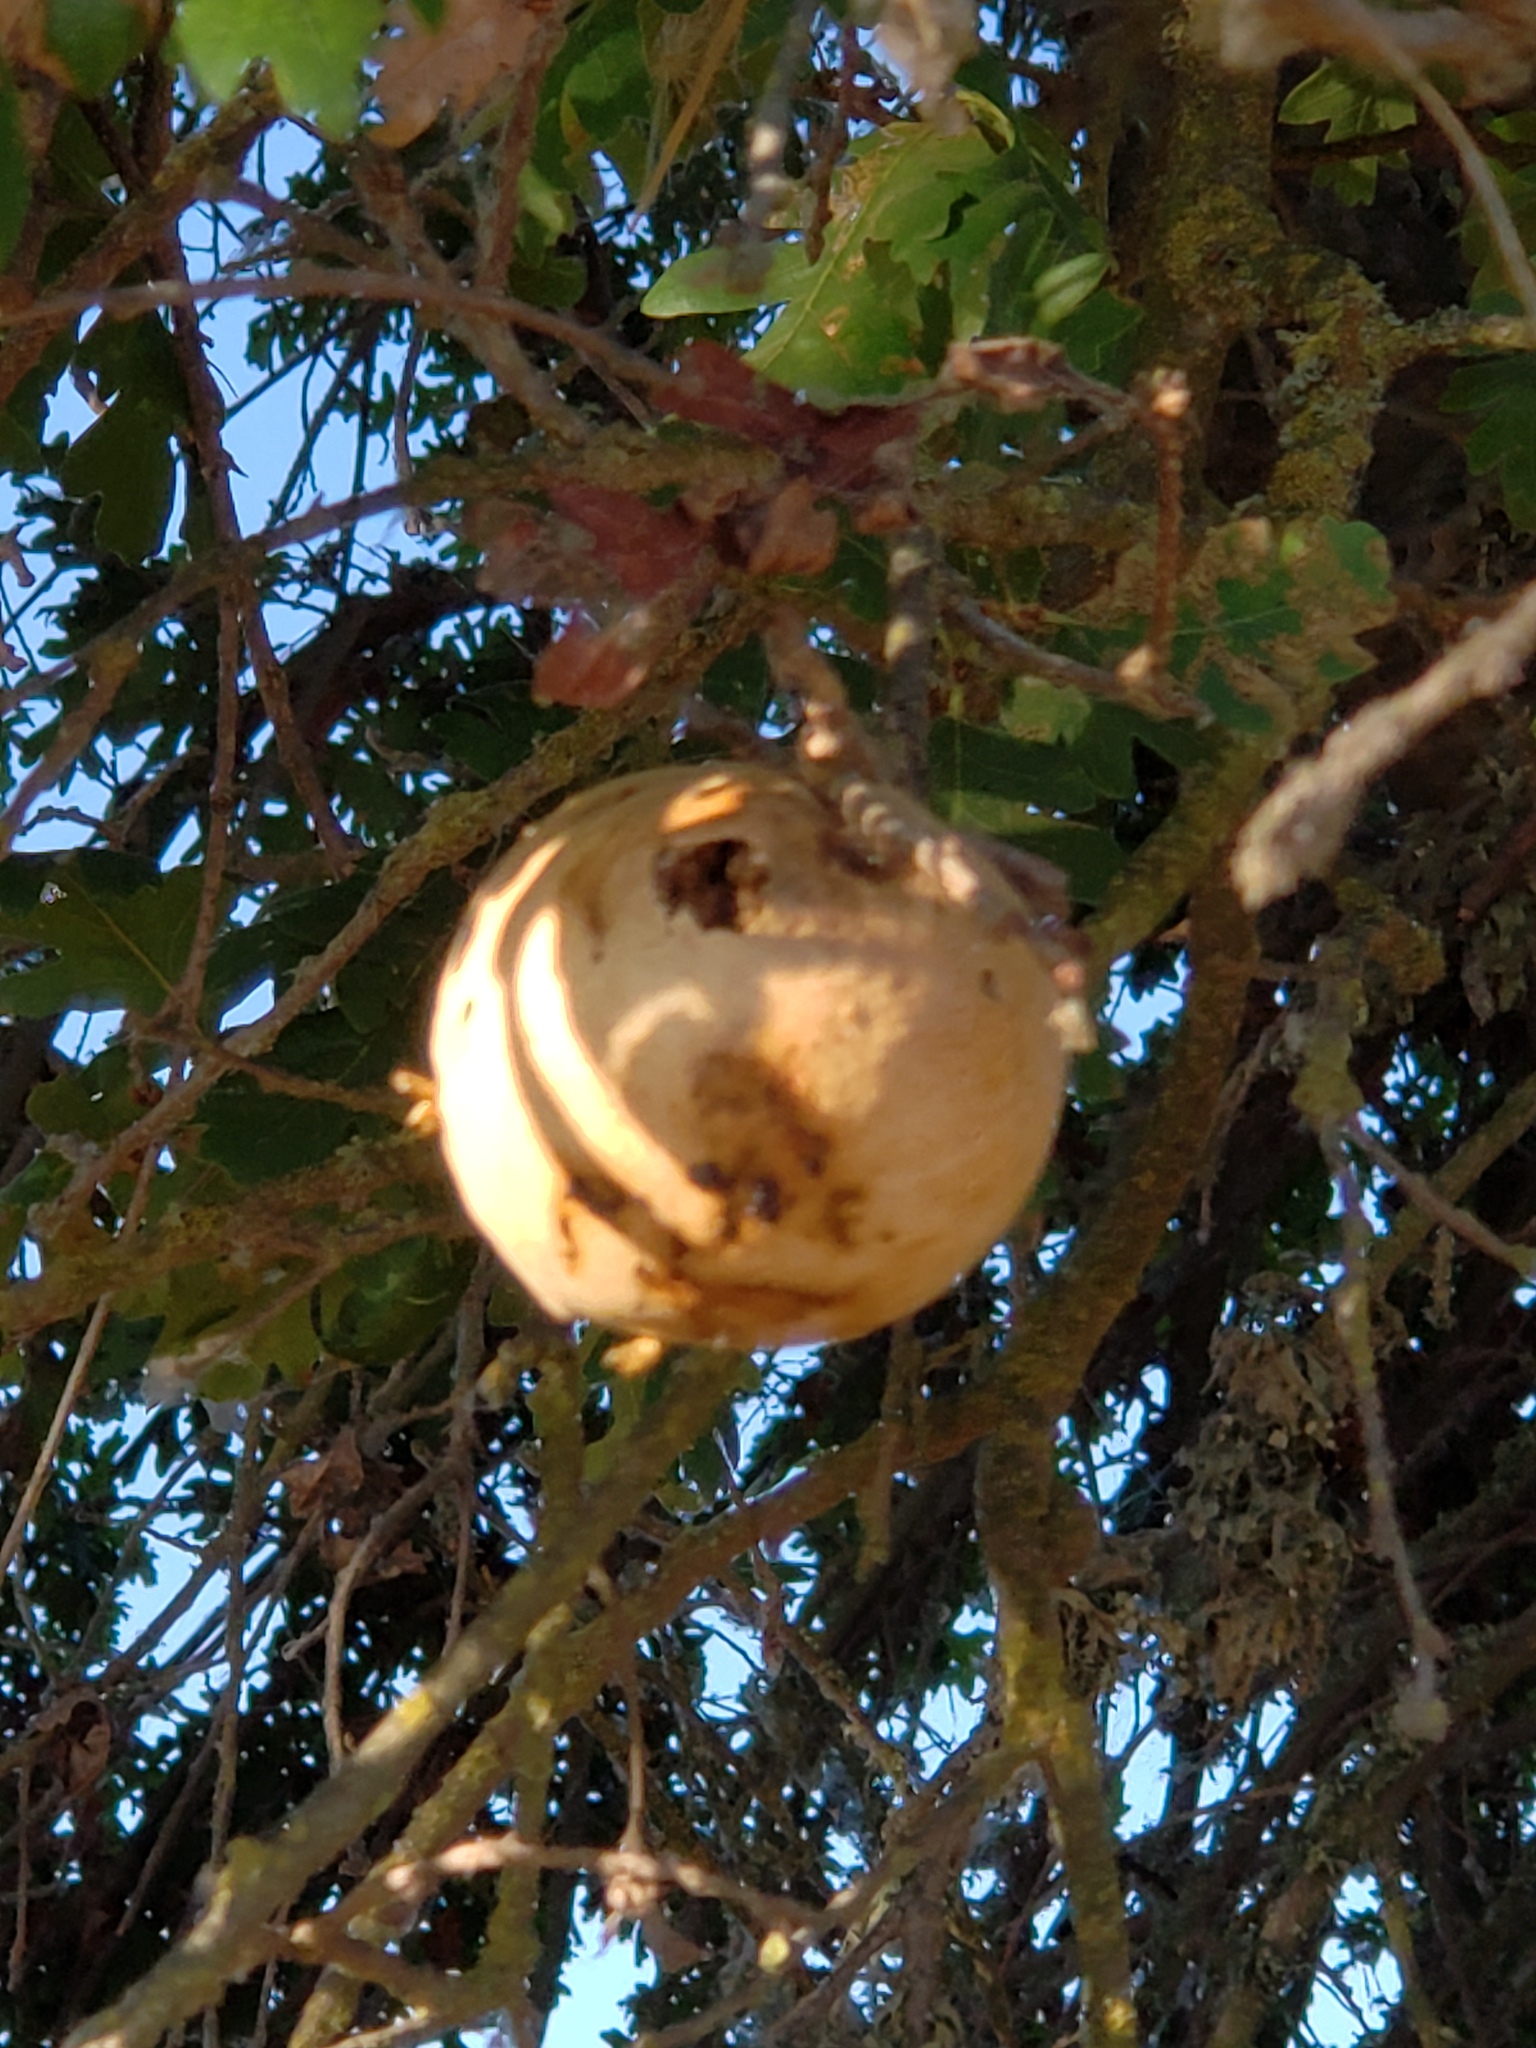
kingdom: Animalia
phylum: Arthropoda
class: Insecta
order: Hymenoptera
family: Cynipidae
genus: Andricus
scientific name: Andricus quercuscalifornicus
